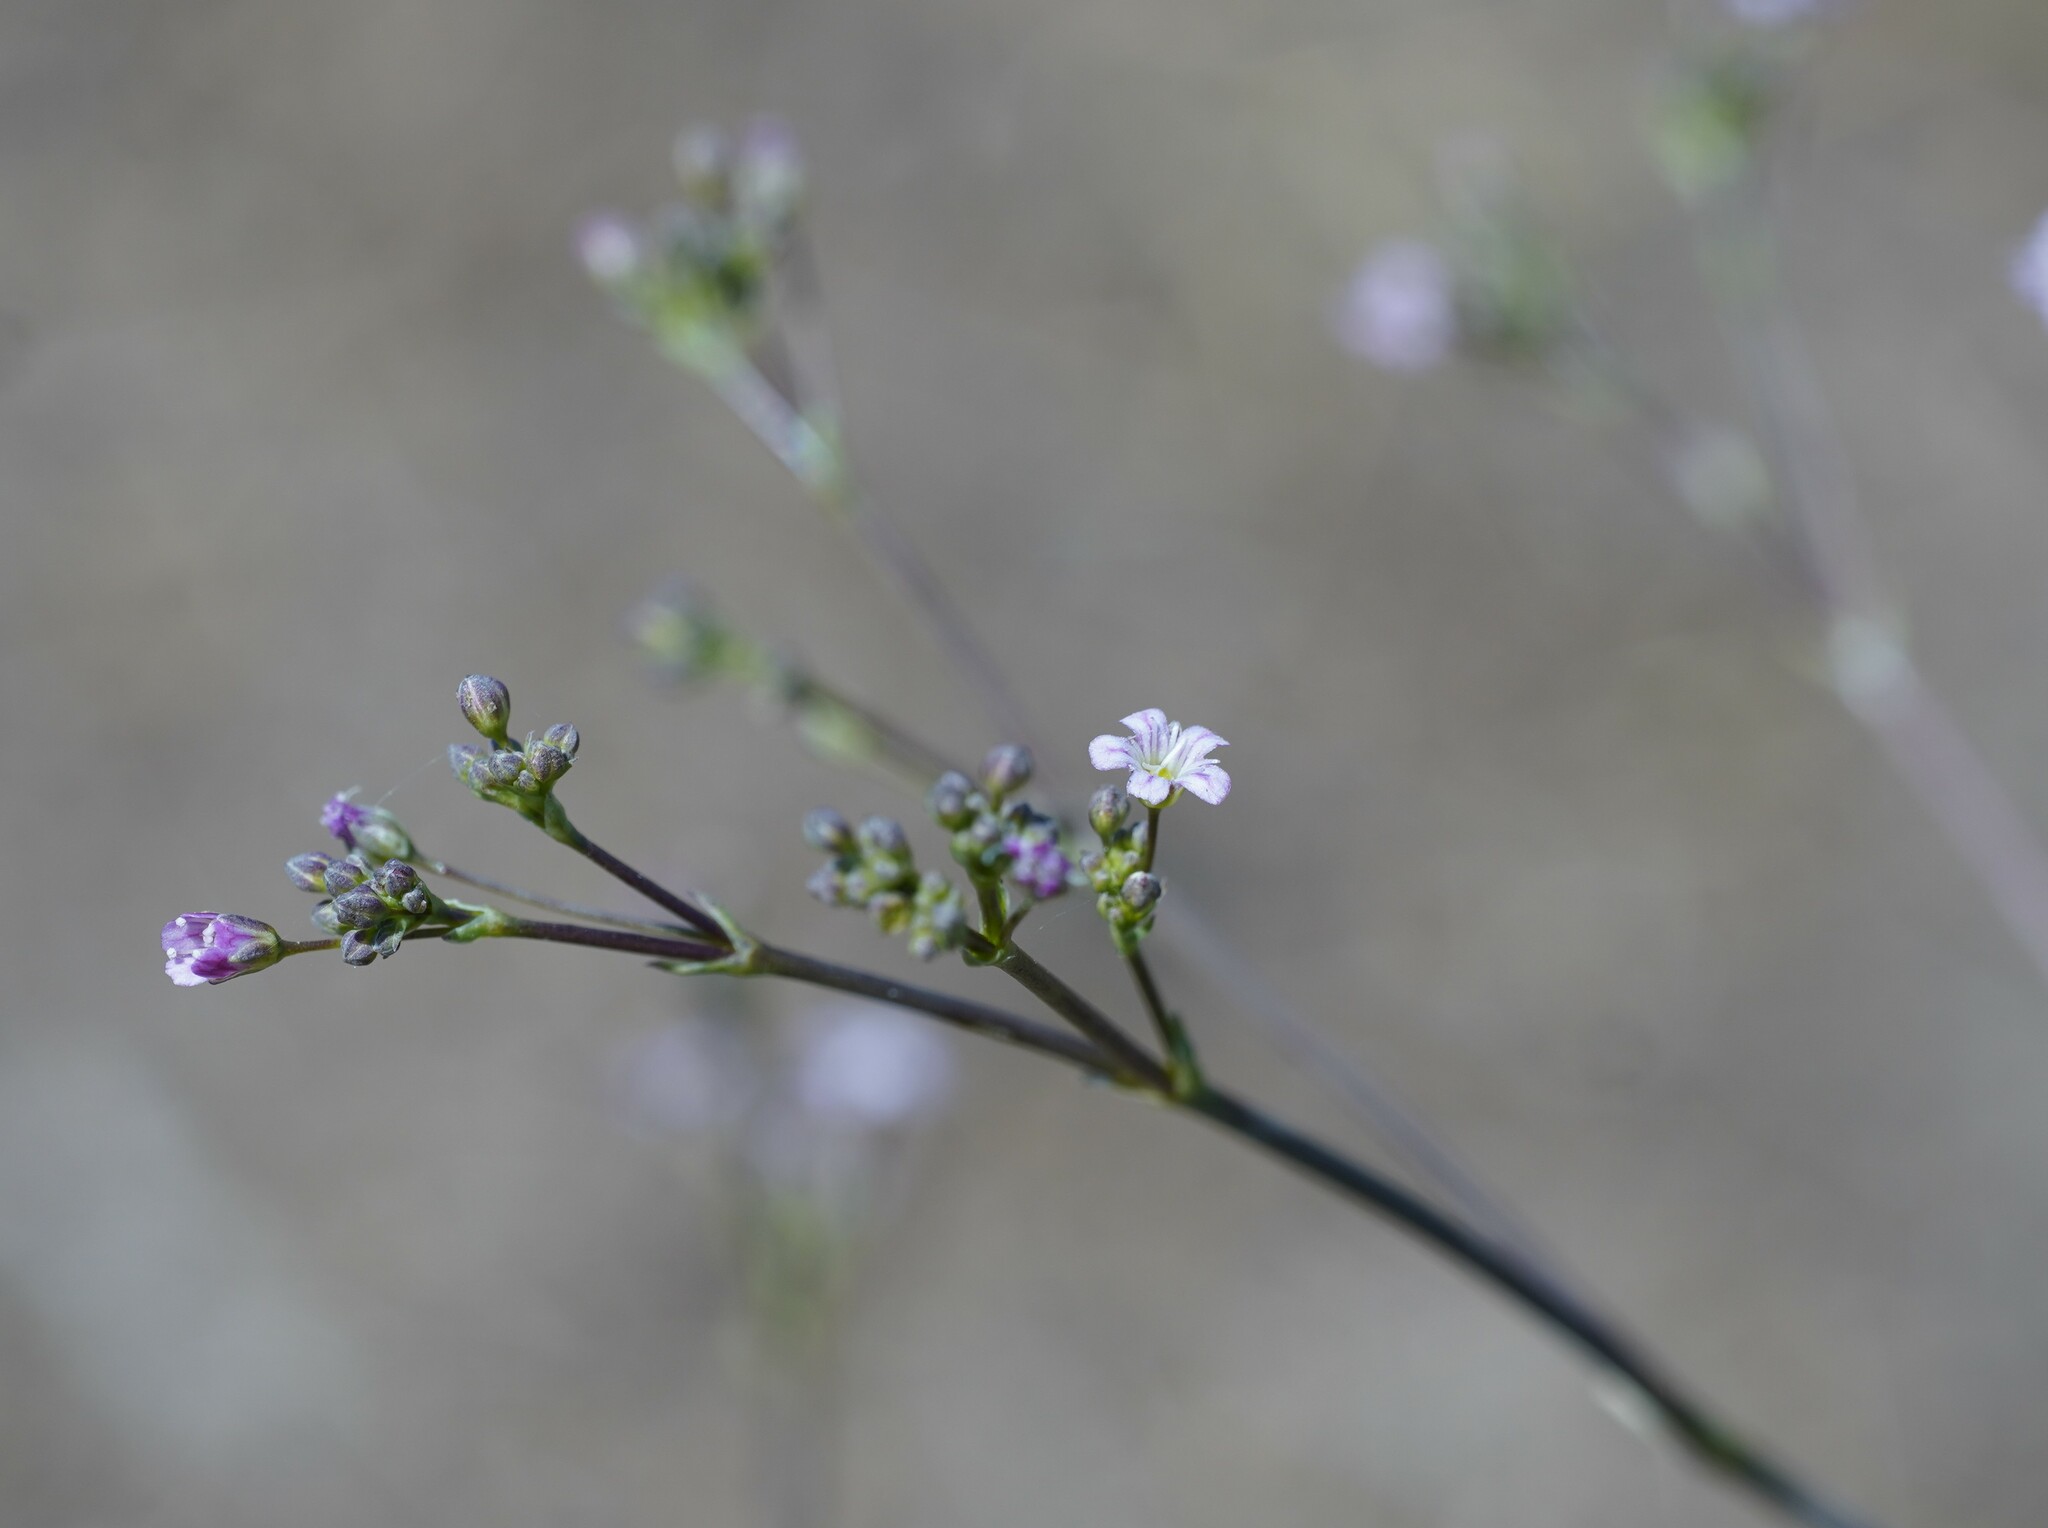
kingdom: Plantae
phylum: Tracheophyta
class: Magnoliopsida
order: Caryophyllales
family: Caryophyllaceae
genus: Gypsophila
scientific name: Gypsophila perfoliata
